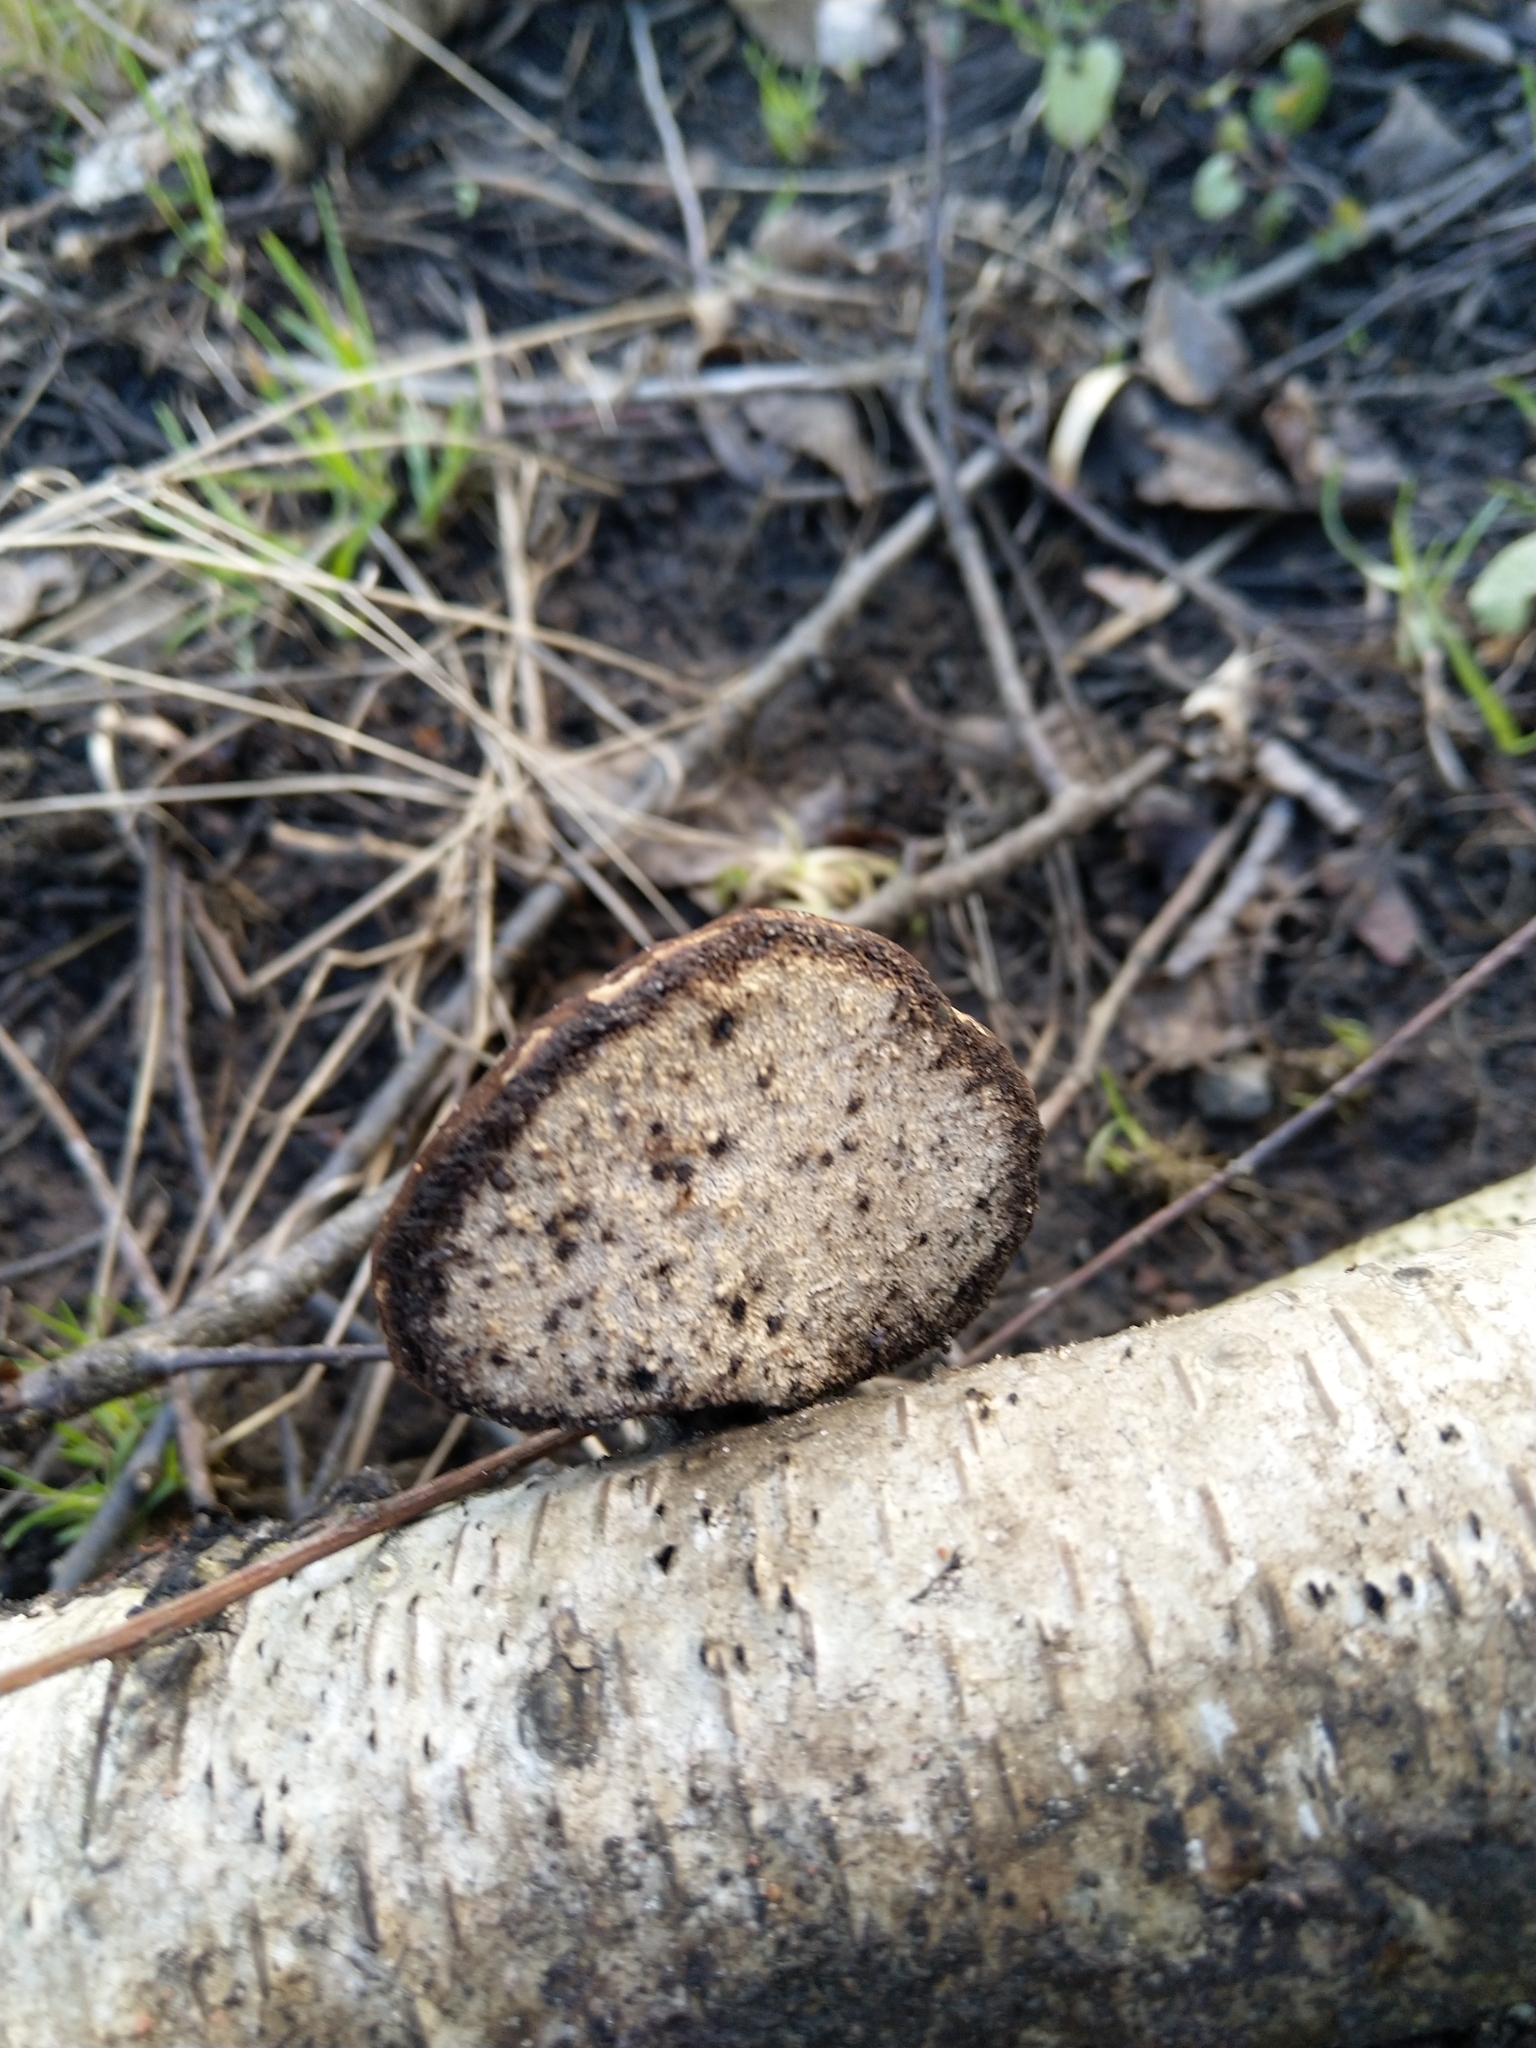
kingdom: Fungi
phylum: Basidiomycota
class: Agaricomycetes
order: Polyporales
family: Fomitopsidaceae
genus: Fomitopsis
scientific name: Fomitopsis betulina
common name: Birch polypore
